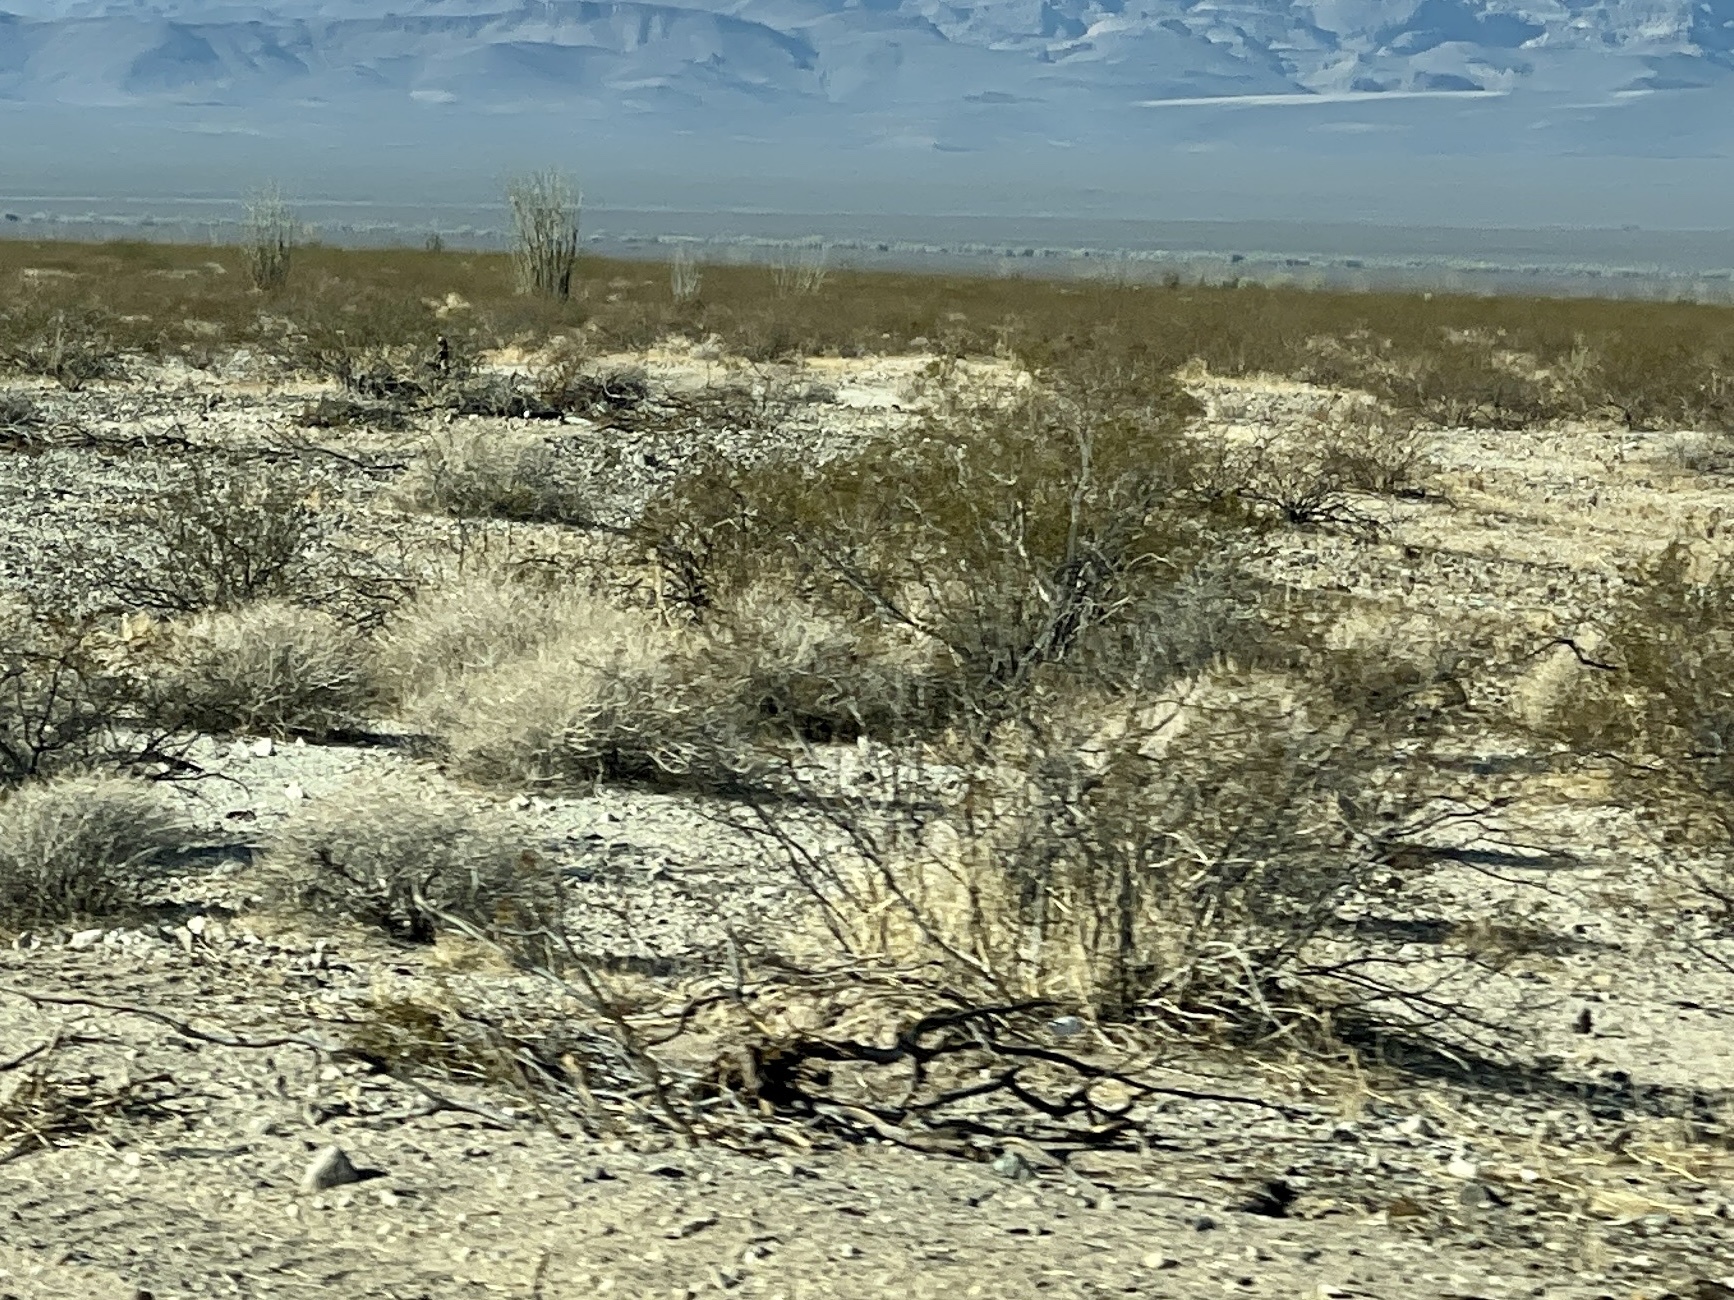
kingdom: Plantae
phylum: Tracheophyta
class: Magnoliopsida
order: Zygophyllales
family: Zygophyllaceae
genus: Larrea
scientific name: Larrea tridentata
